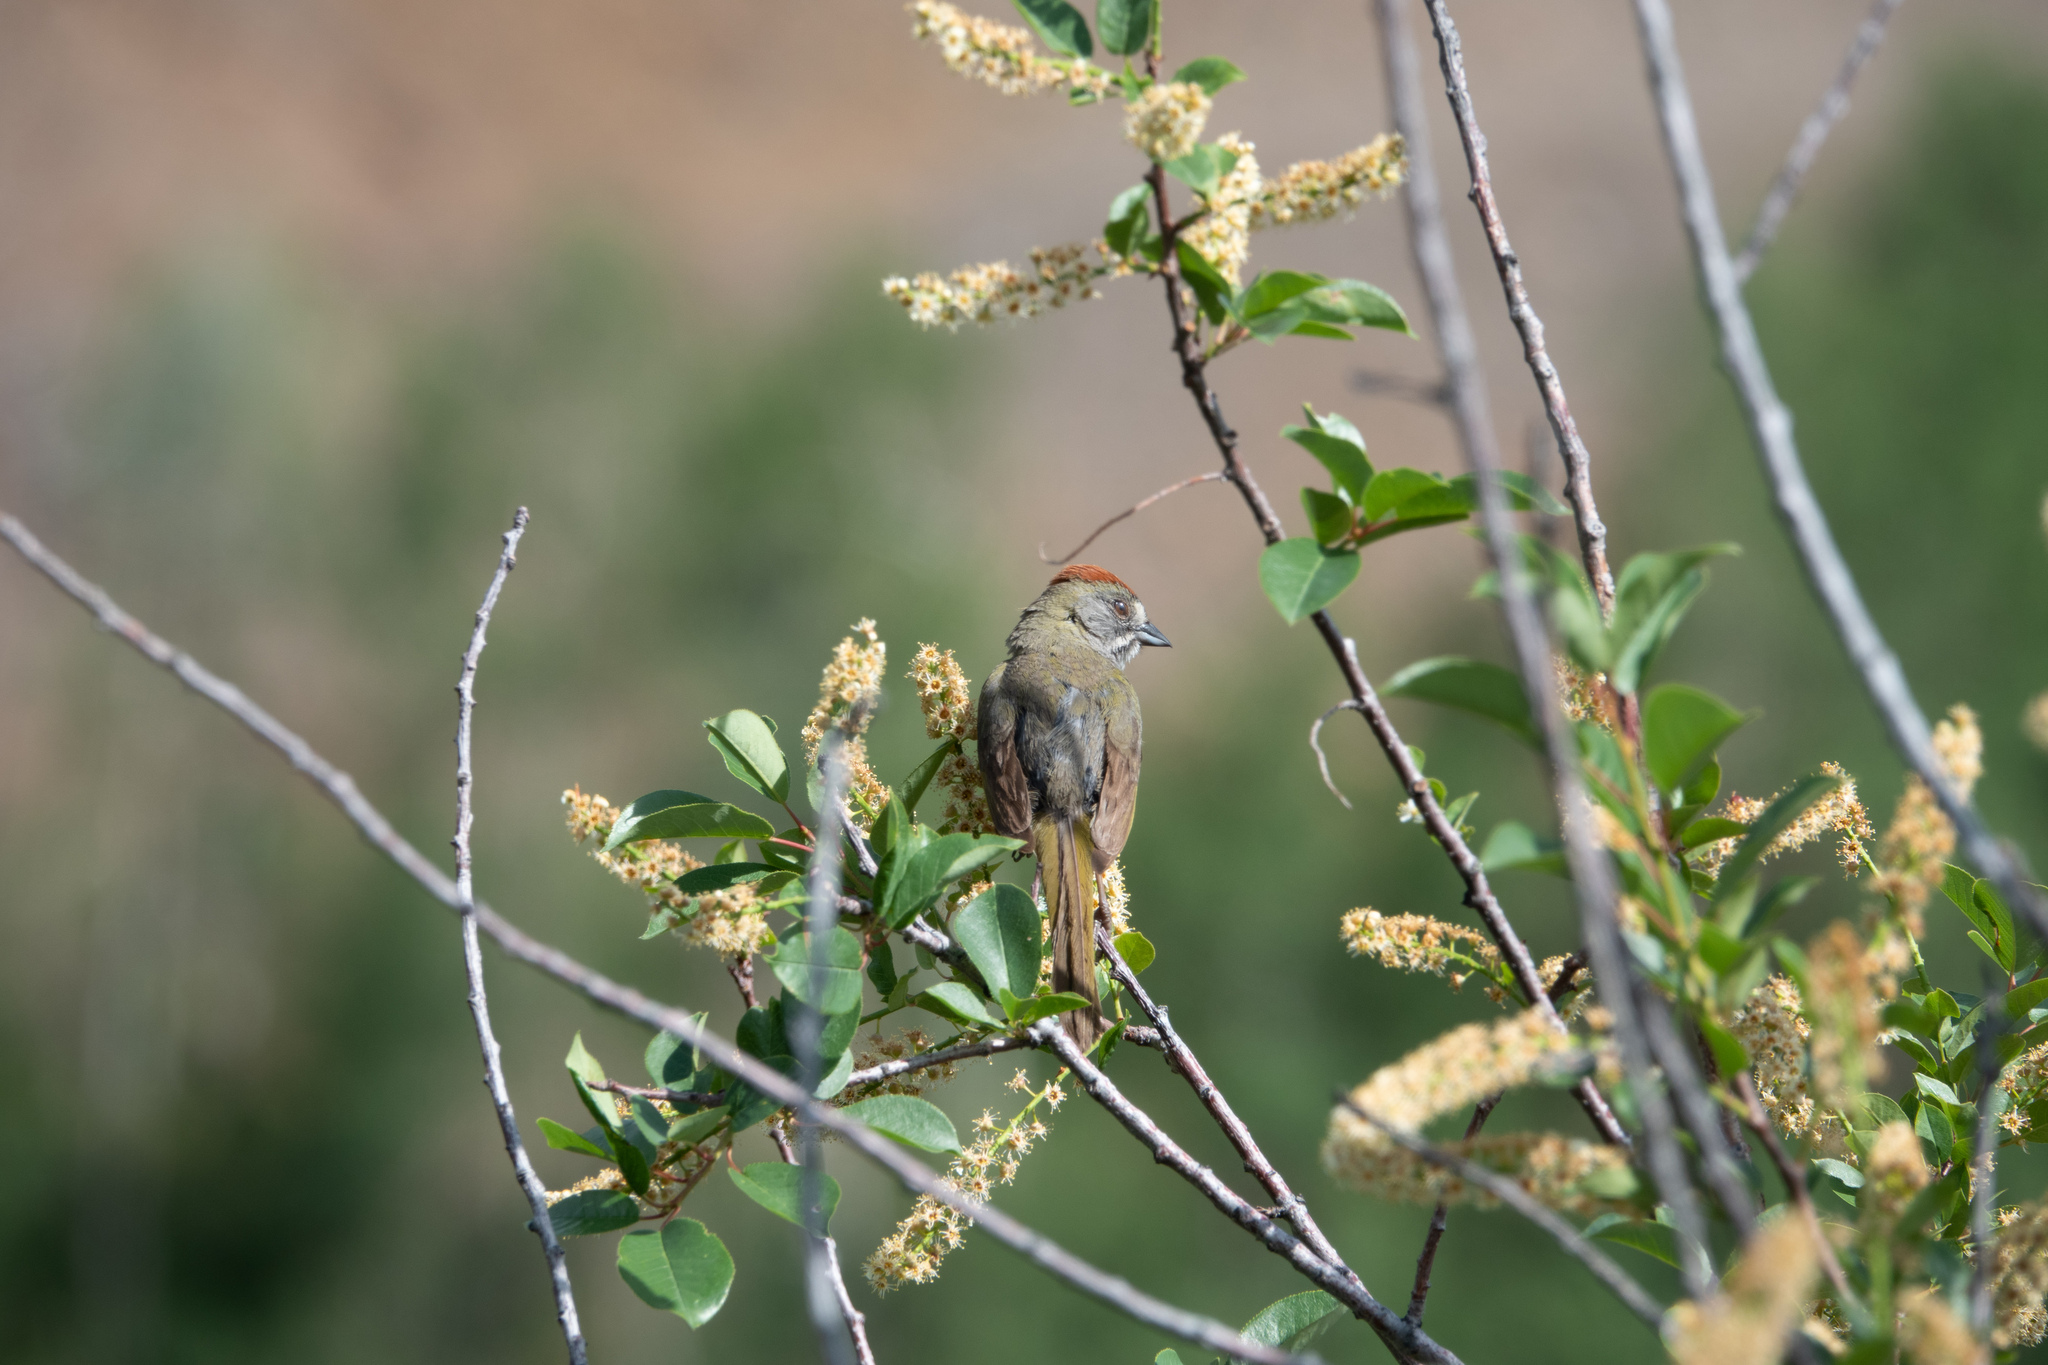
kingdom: Animalia
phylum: Chordata
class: Aves
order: Passeriformes
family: Passerellidae
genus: Pipilo
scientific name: Pipilo chlorurus
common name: Green-tailed towhee
